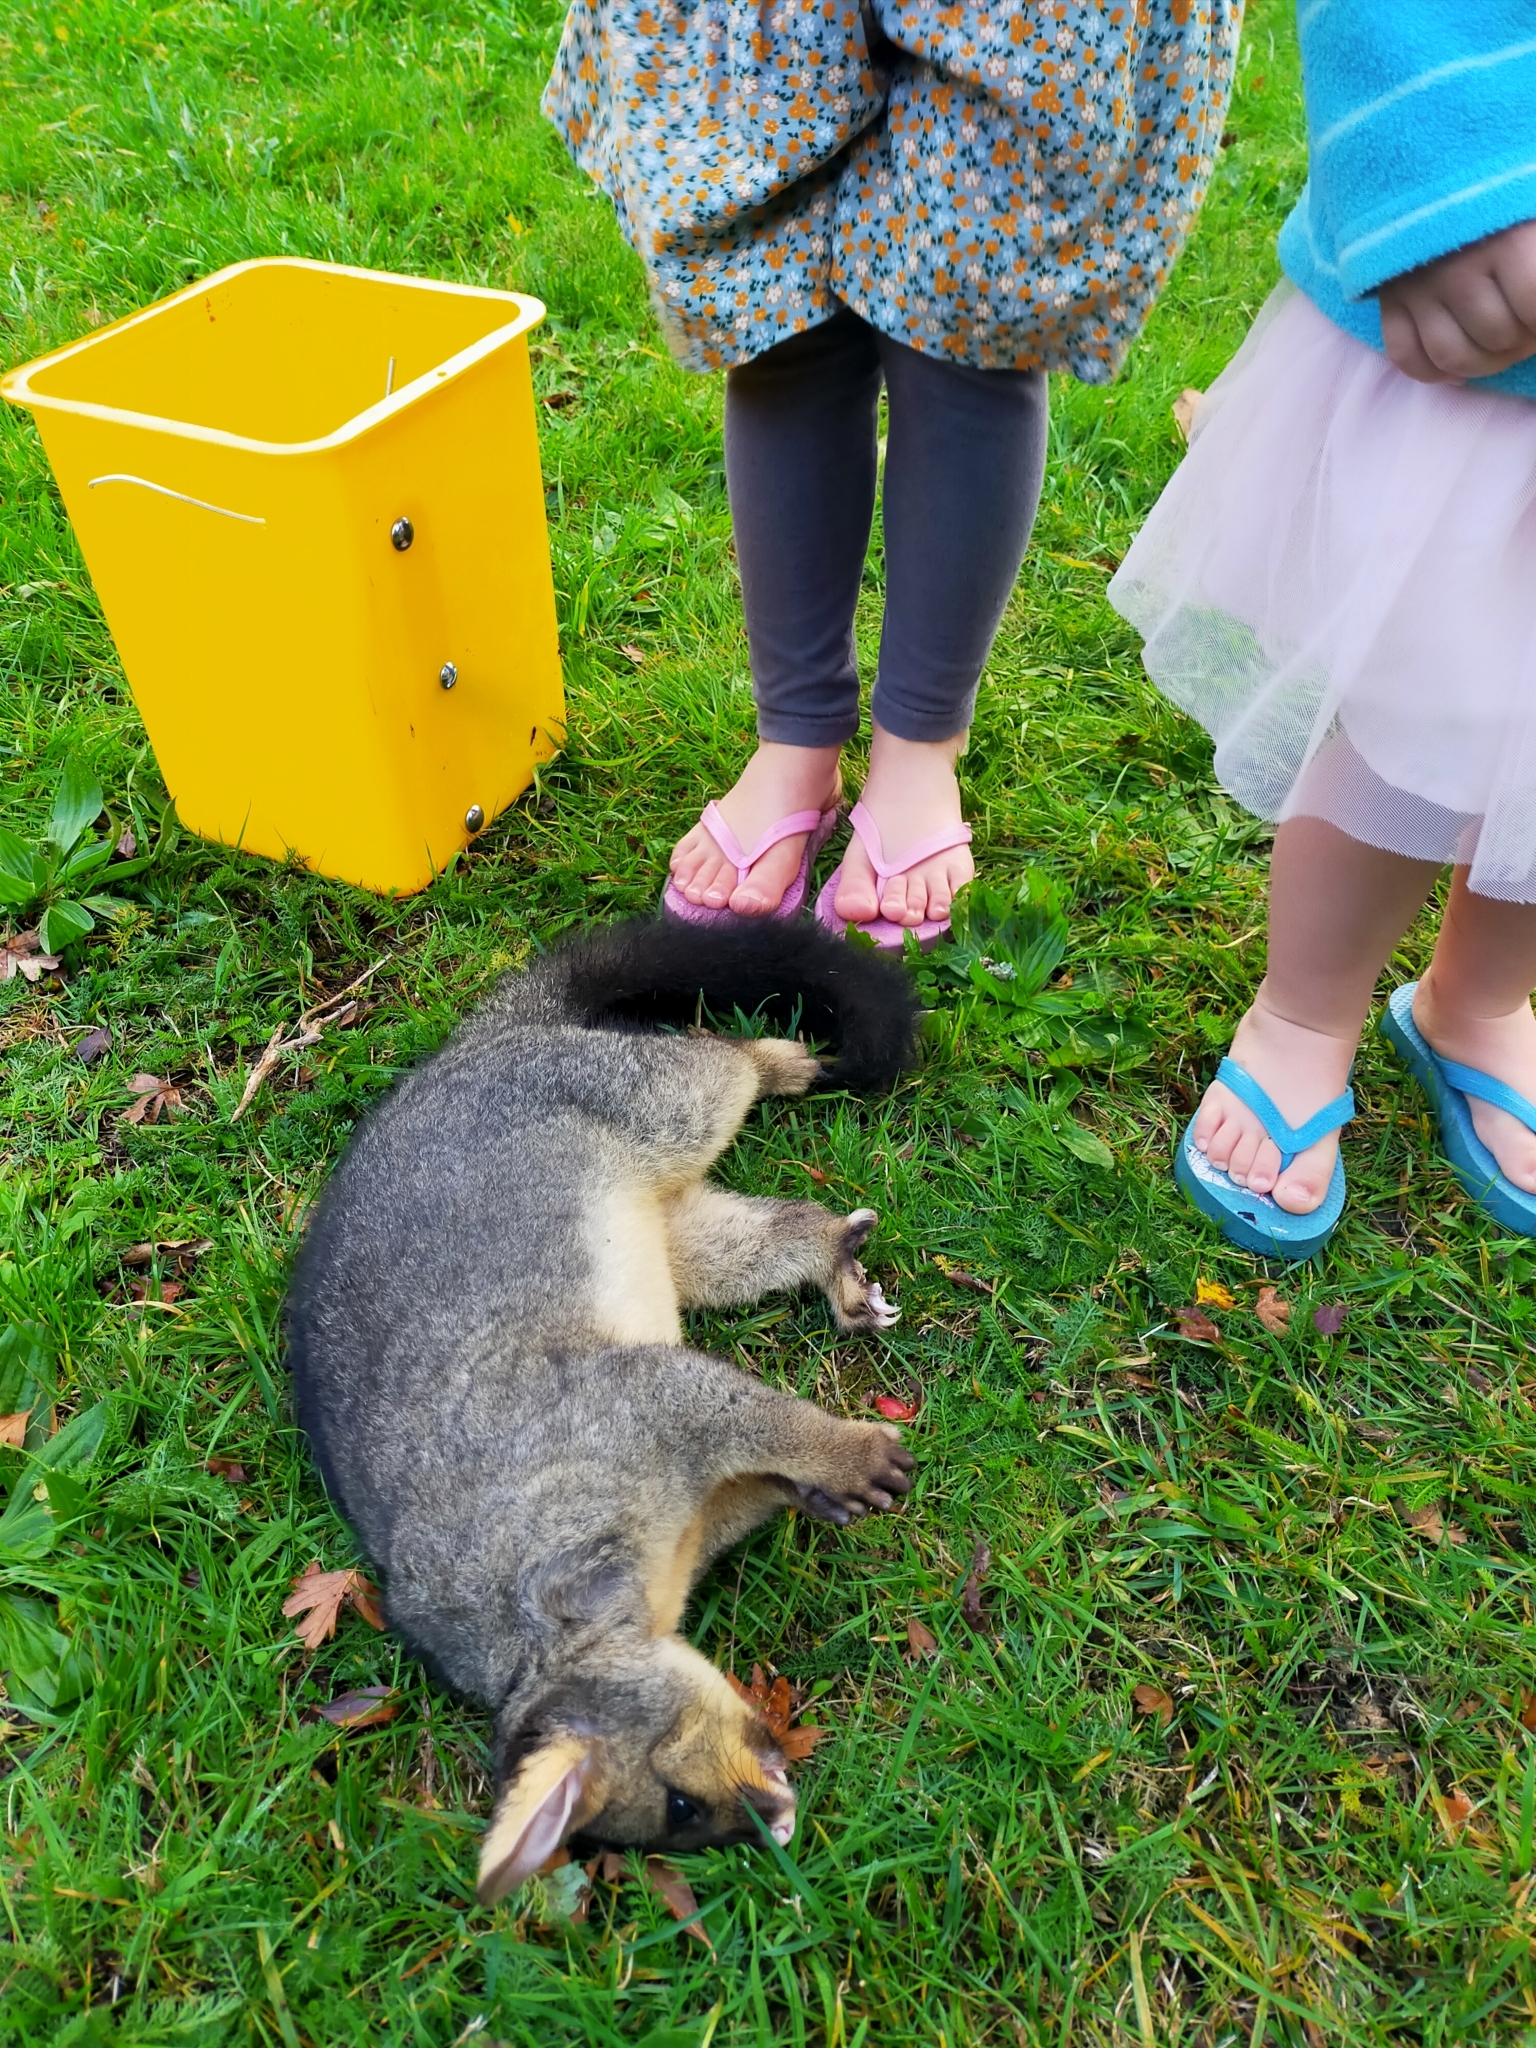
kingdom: Animalia
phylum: Chordata
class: Mammalia
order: Diprotodontia
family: Phalangeridae
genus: Trichosurus
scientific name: Trichosurus vulpecula
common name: Common brushtail
